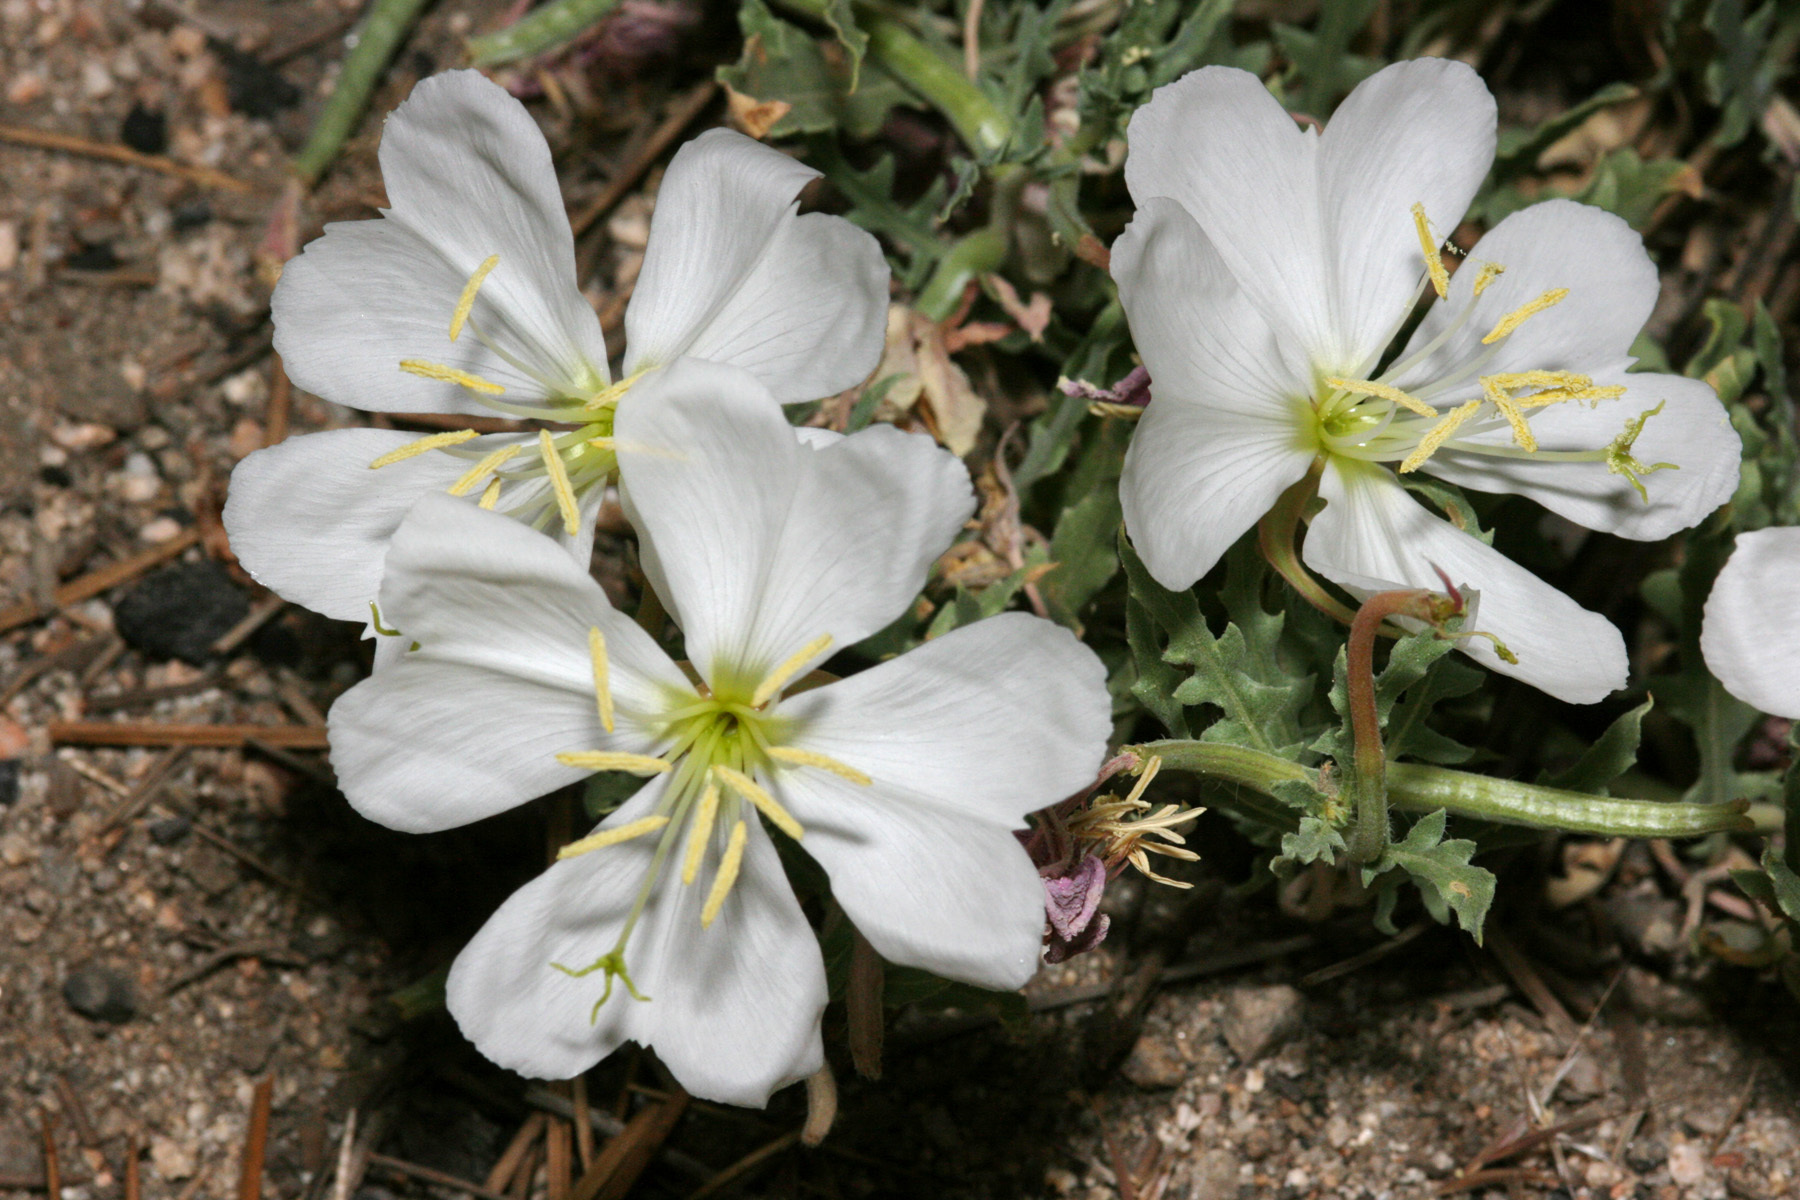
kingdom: Plantae
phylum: Tracheophyta
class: Magnoliopsida
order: Myrtales
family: Onagraceae
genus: Oenothera
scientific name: Oenothera californica
